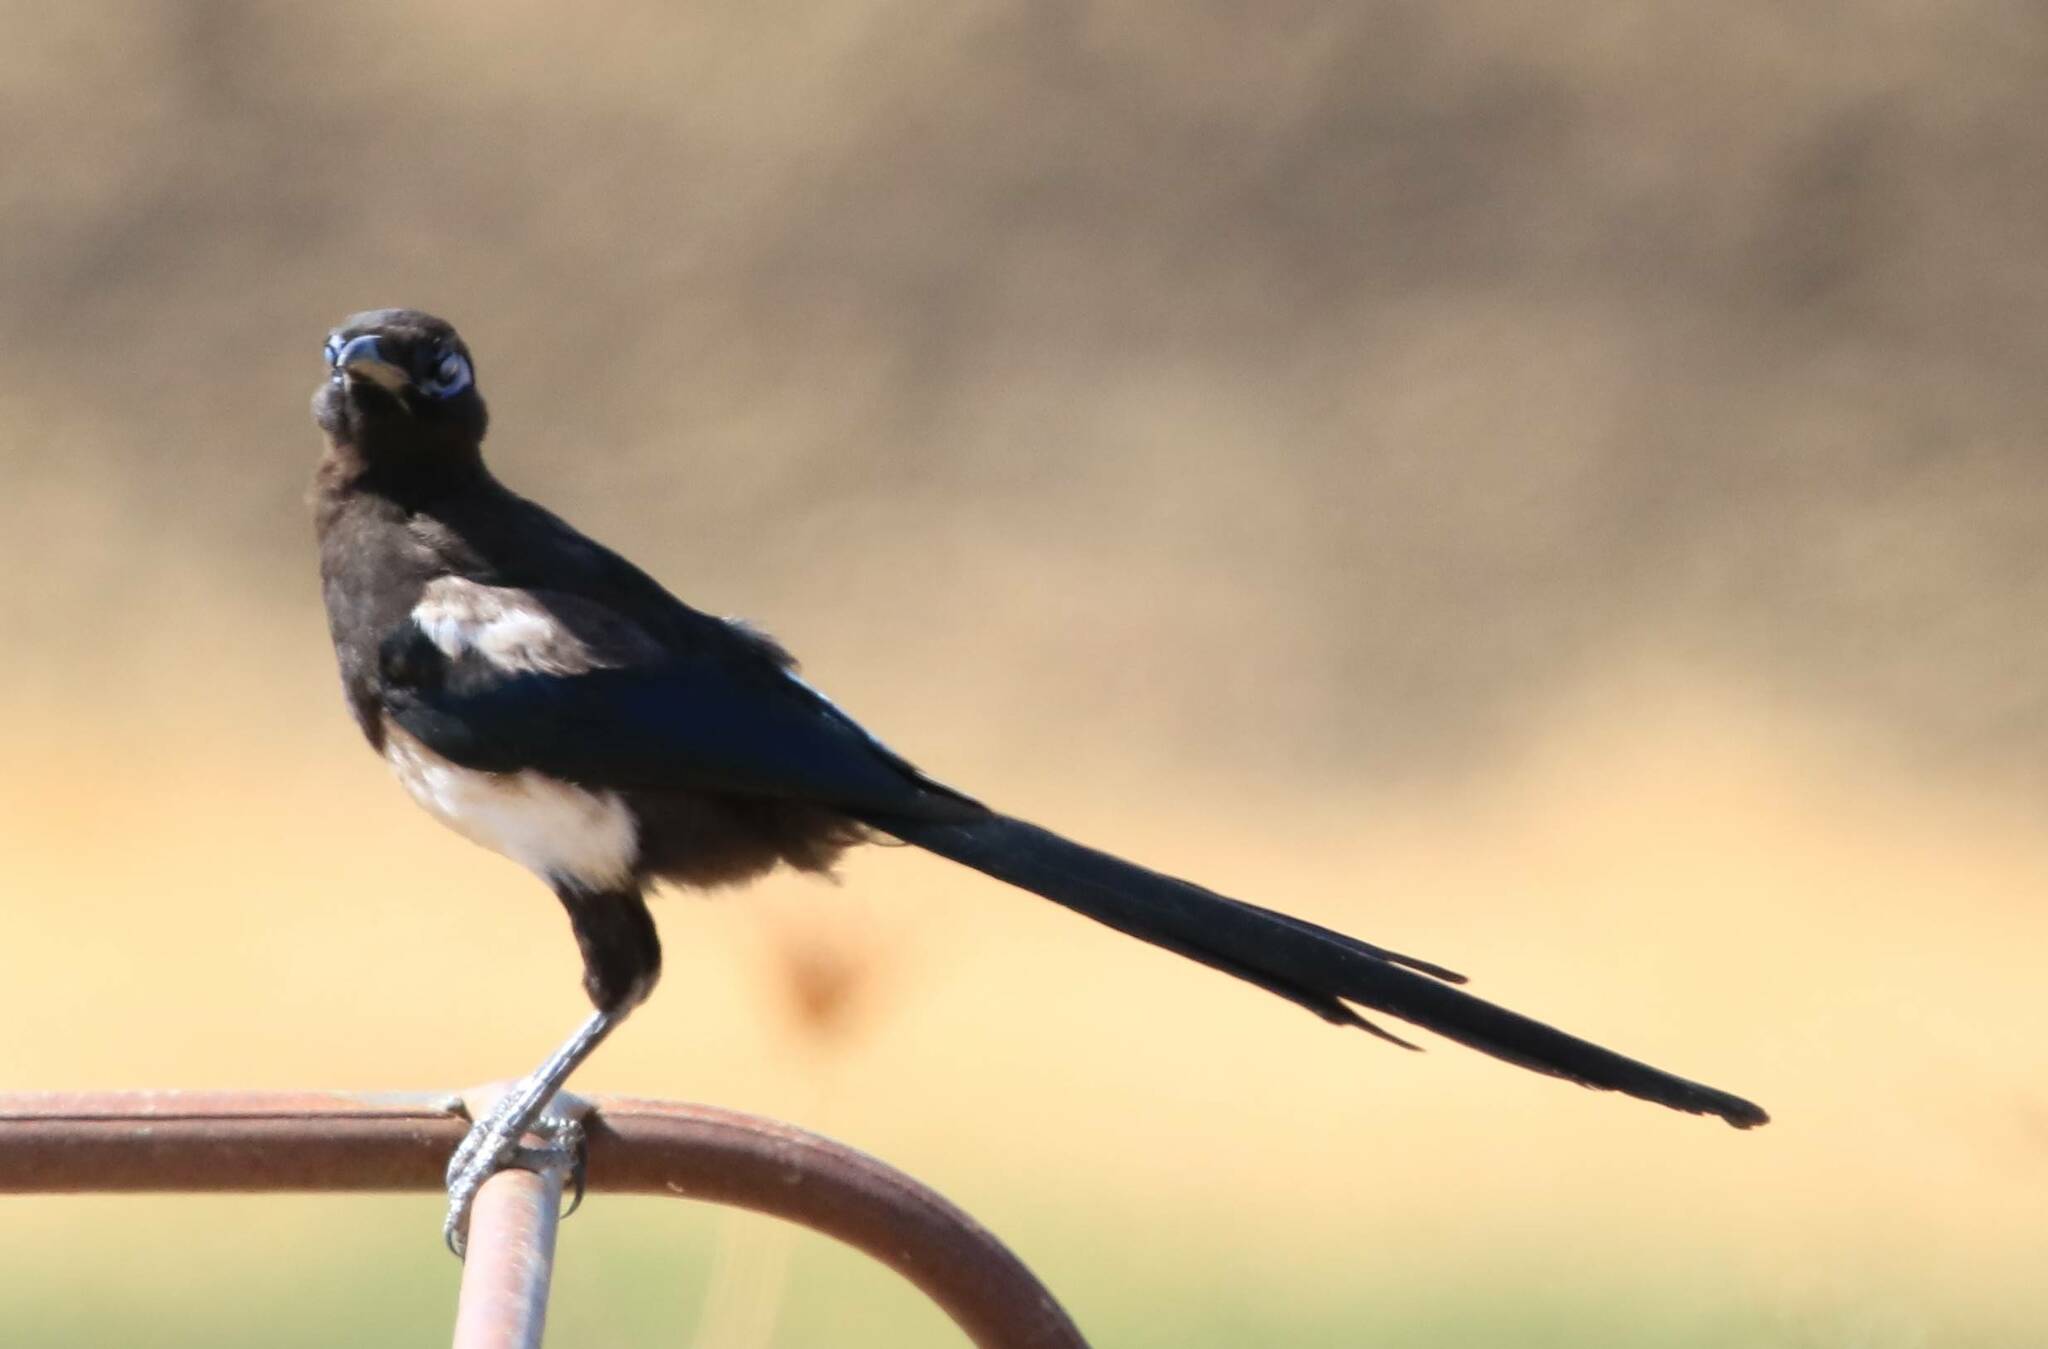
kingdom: Animalia
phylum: Chordata
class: Aves
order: Passeriformes
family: Corvidae
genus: Pica
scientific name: Pica mauritanica
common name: Maghreb magpie
